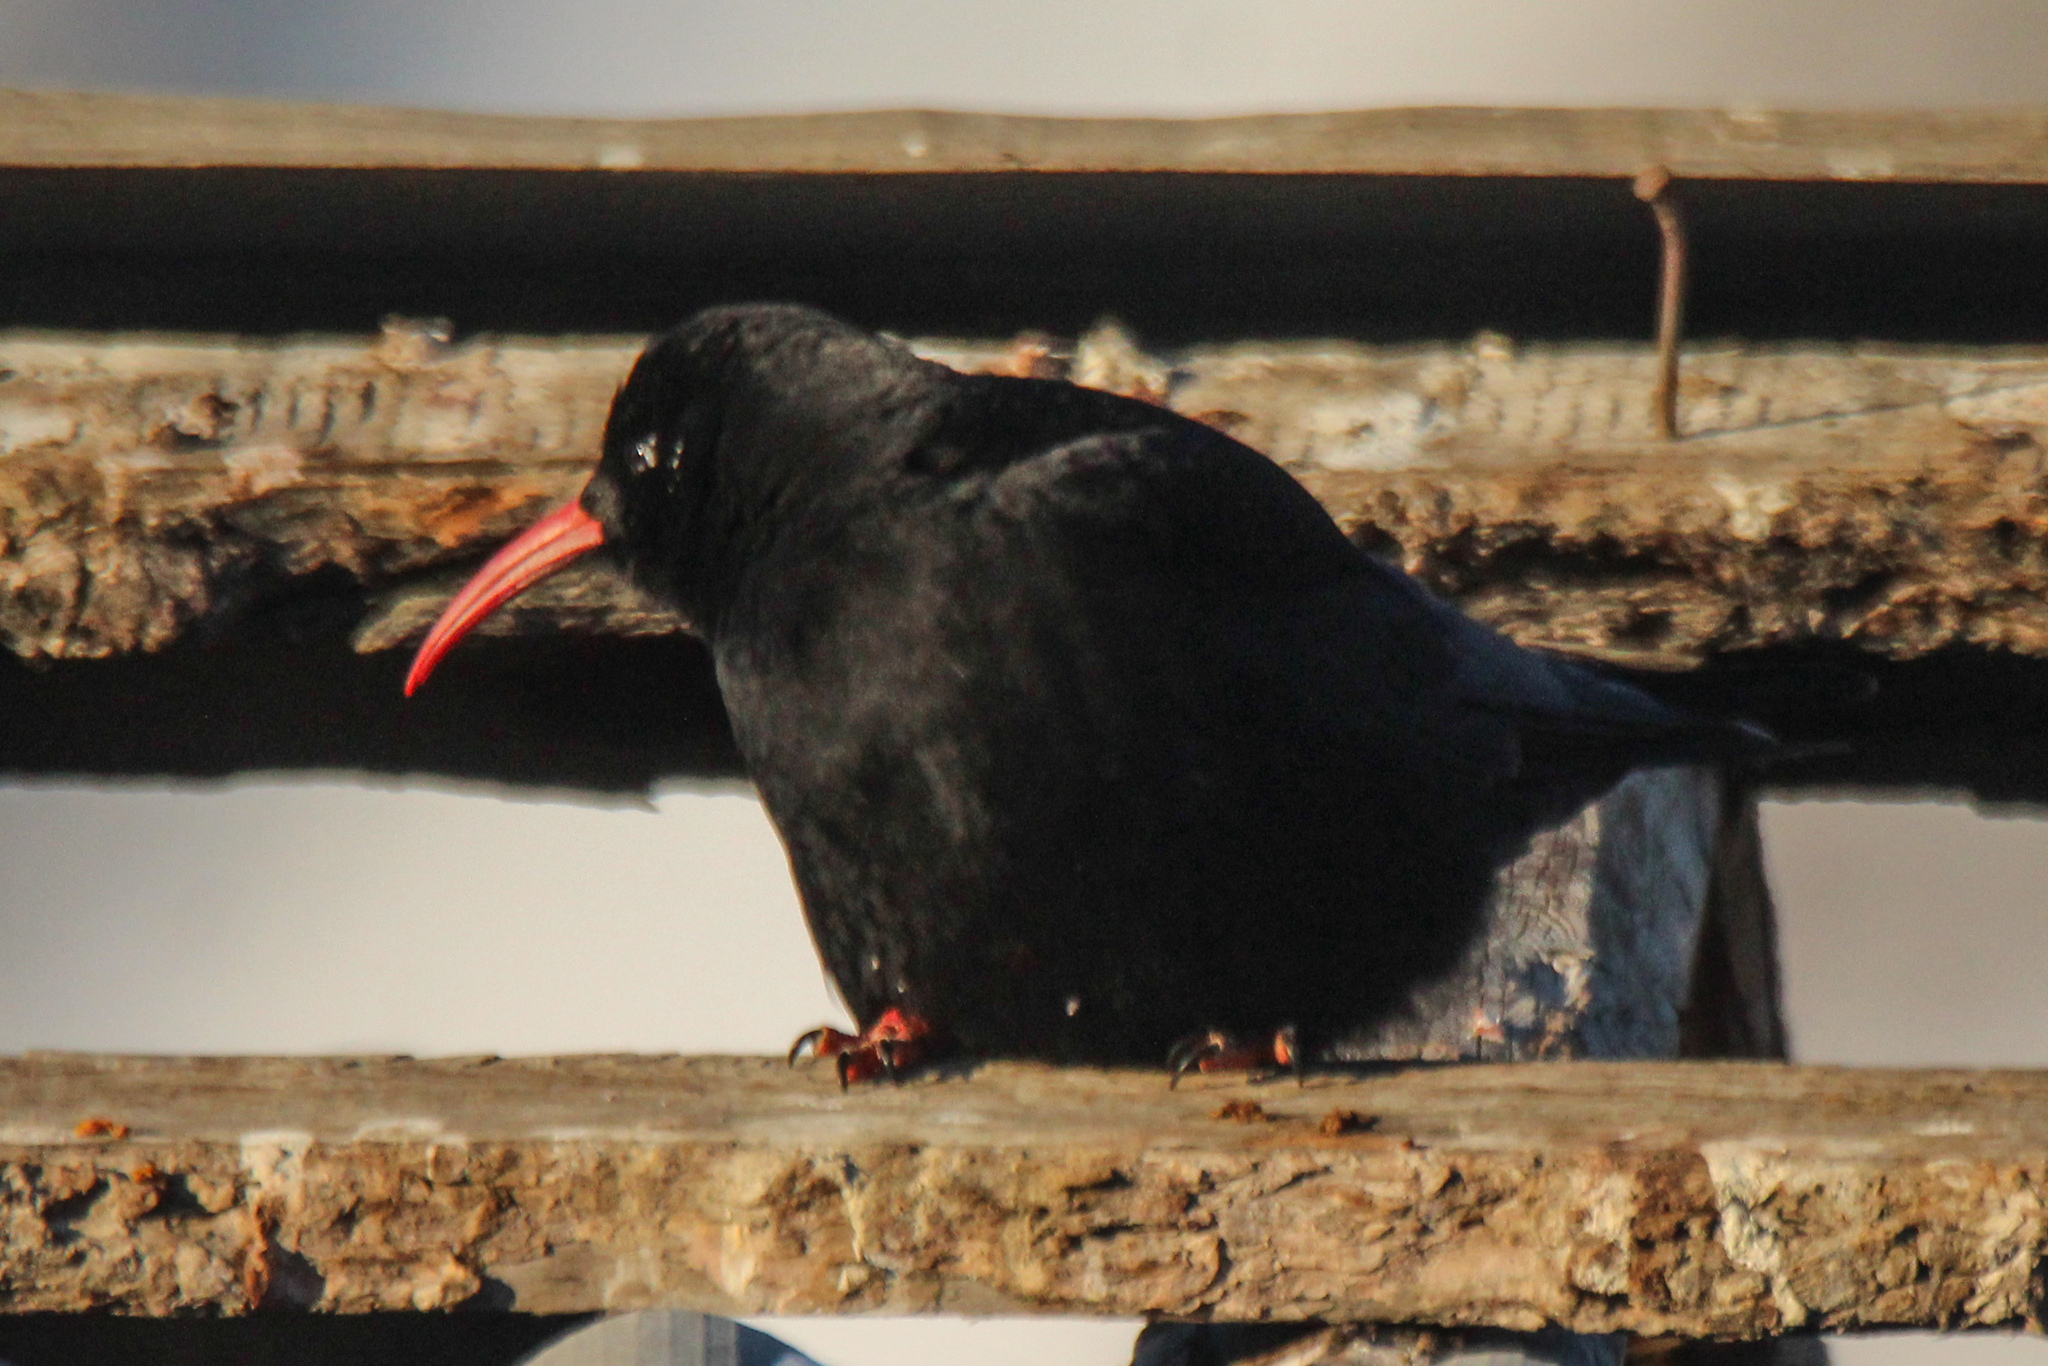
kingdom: Animalia
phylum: Chordata
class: Aves
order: Passeriformes
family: Corvidae
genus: Pyrrhocorax
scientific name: Pyrrhocorax pyrrhocorax
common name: Red-billed chough
